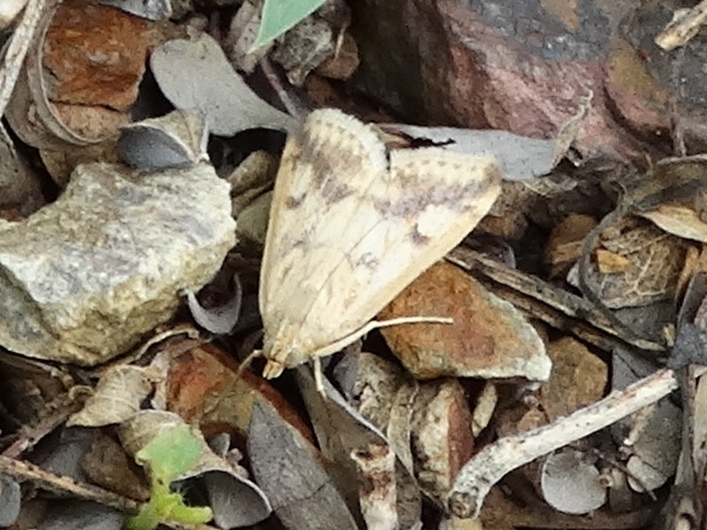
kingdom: Animalia
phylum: Arthropoda
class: Insecta
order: Lepidoptera
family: Crambidae
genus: Achyra
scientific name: Achyra bifidalis
